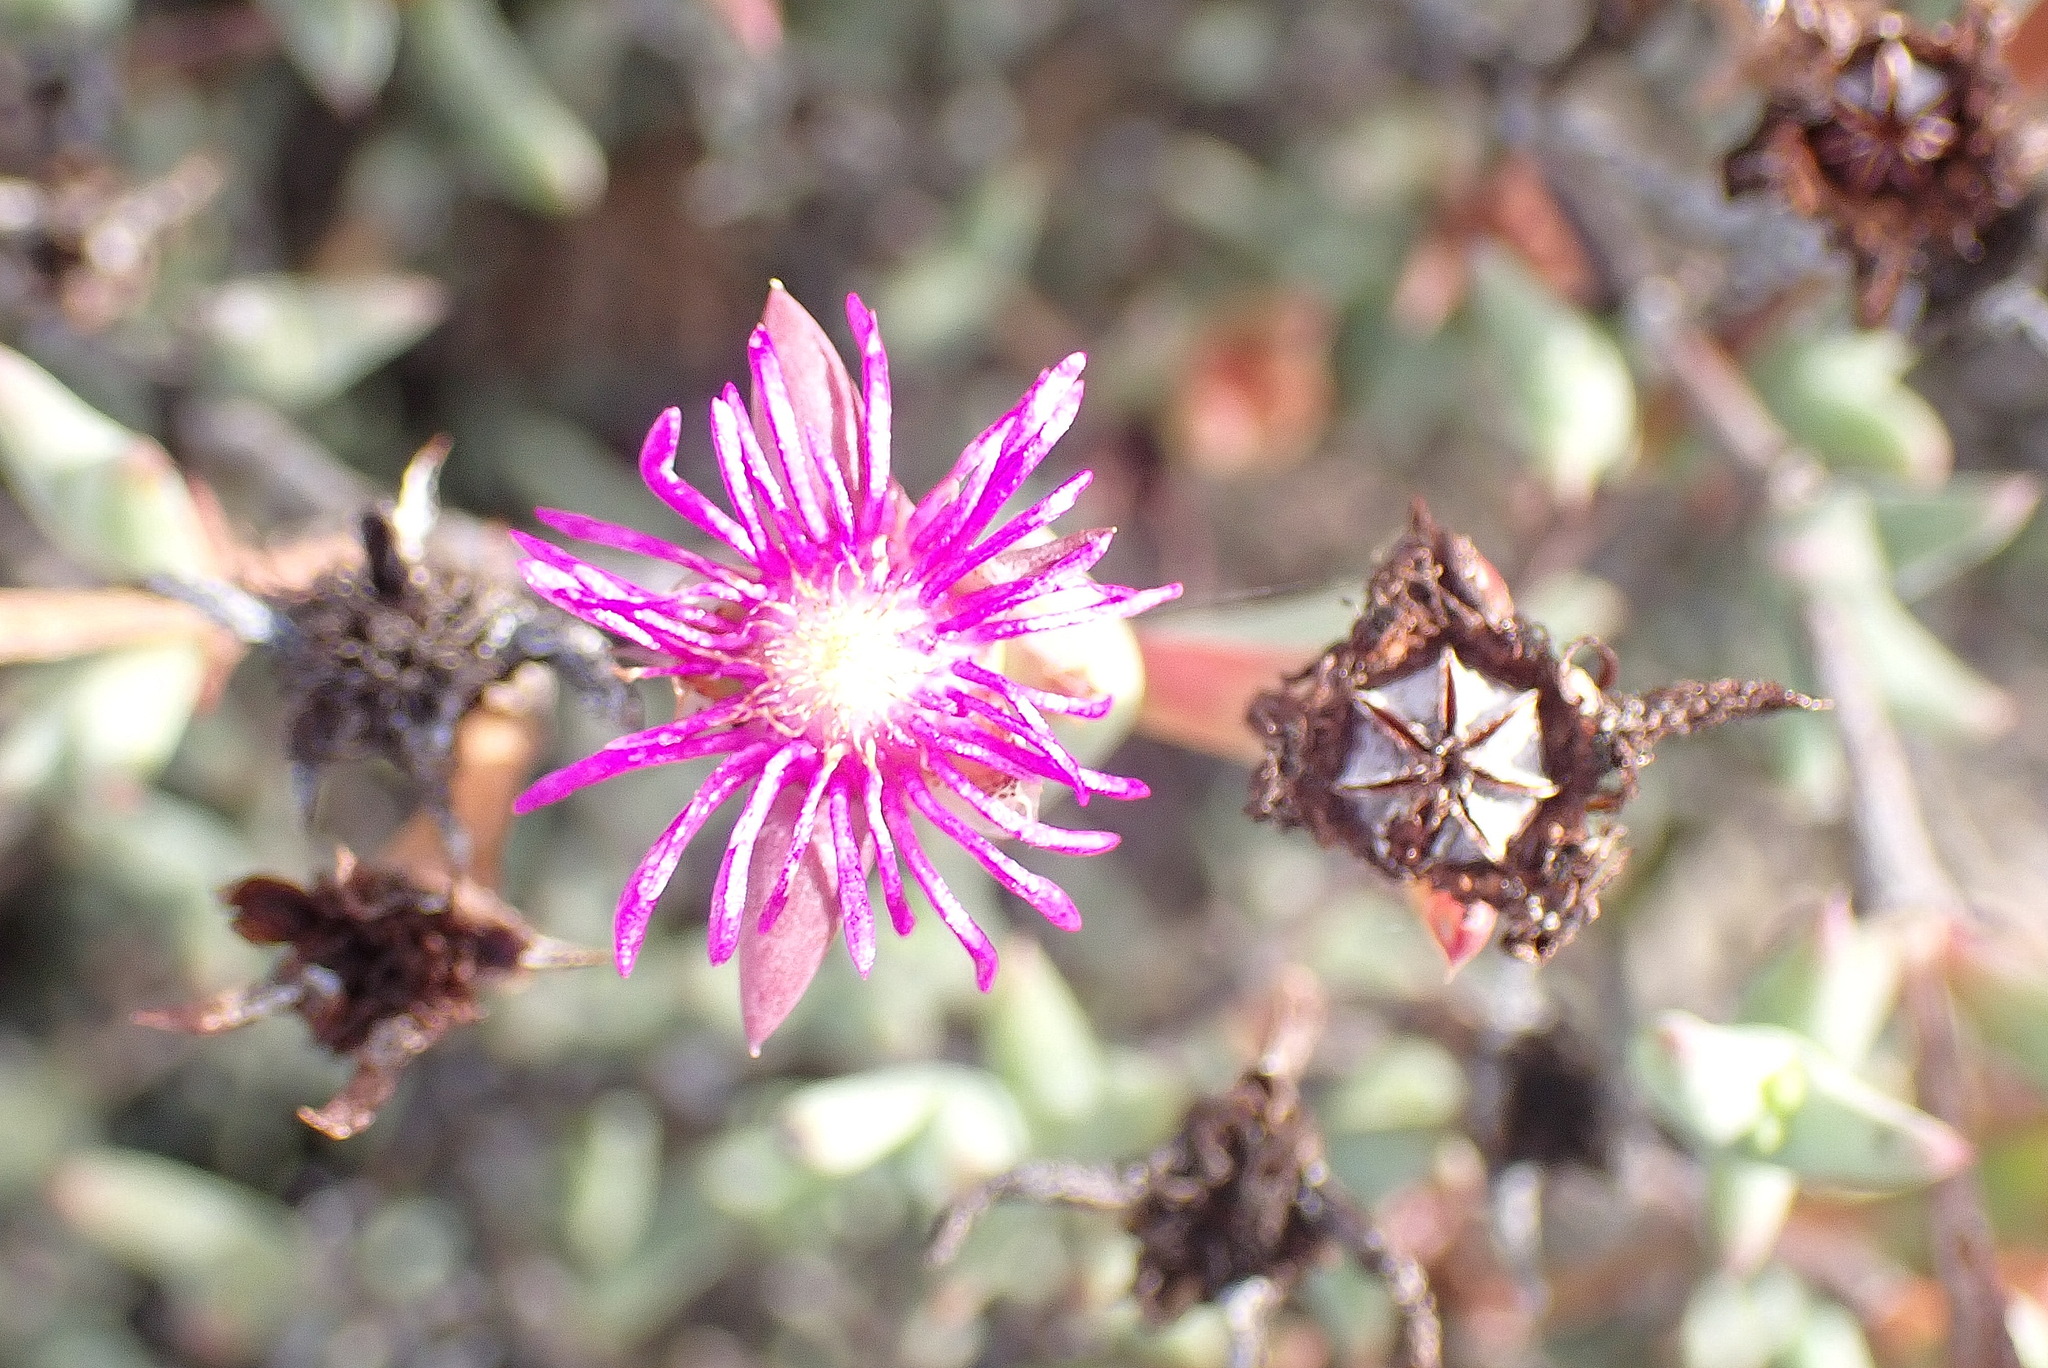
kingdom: Plantae
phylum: Tracheophyta
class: Magnoliopsida
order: Caryophyllales
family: Aizoaceae
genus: Smicrostigma
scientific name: Smicrostigma viride
